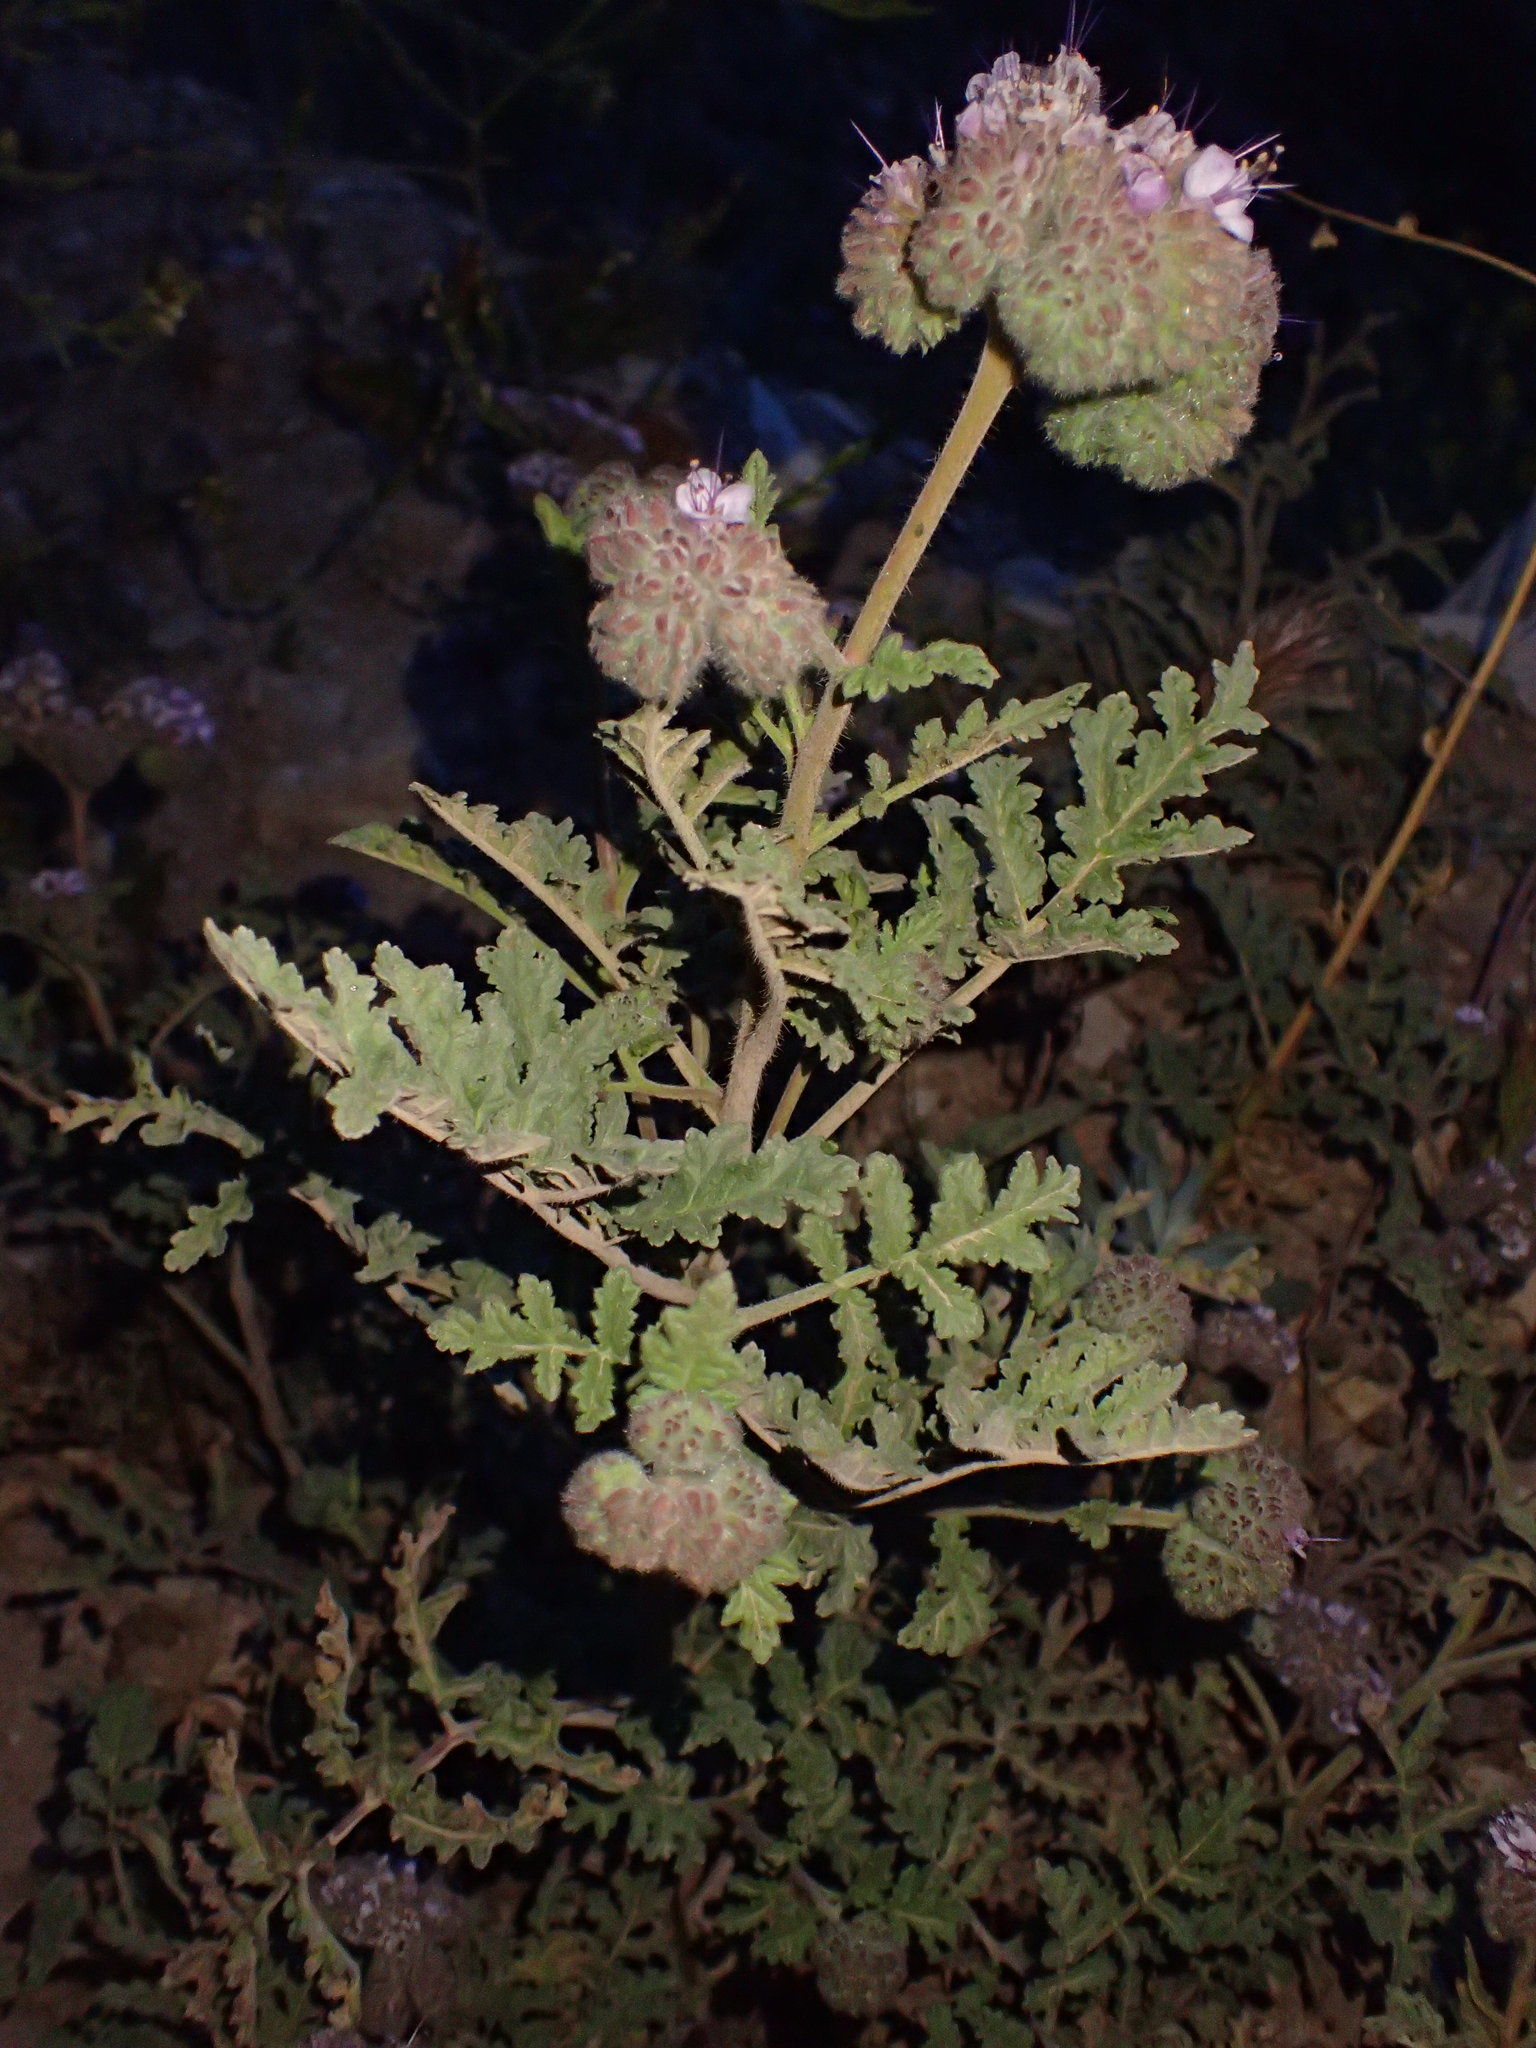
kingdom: Plantae
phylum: Tracheophyta
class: Magnoliopsida
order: Boraginales
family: Hydrophyllaceae
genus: Phacelia
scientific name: Phacelia hubbyi
